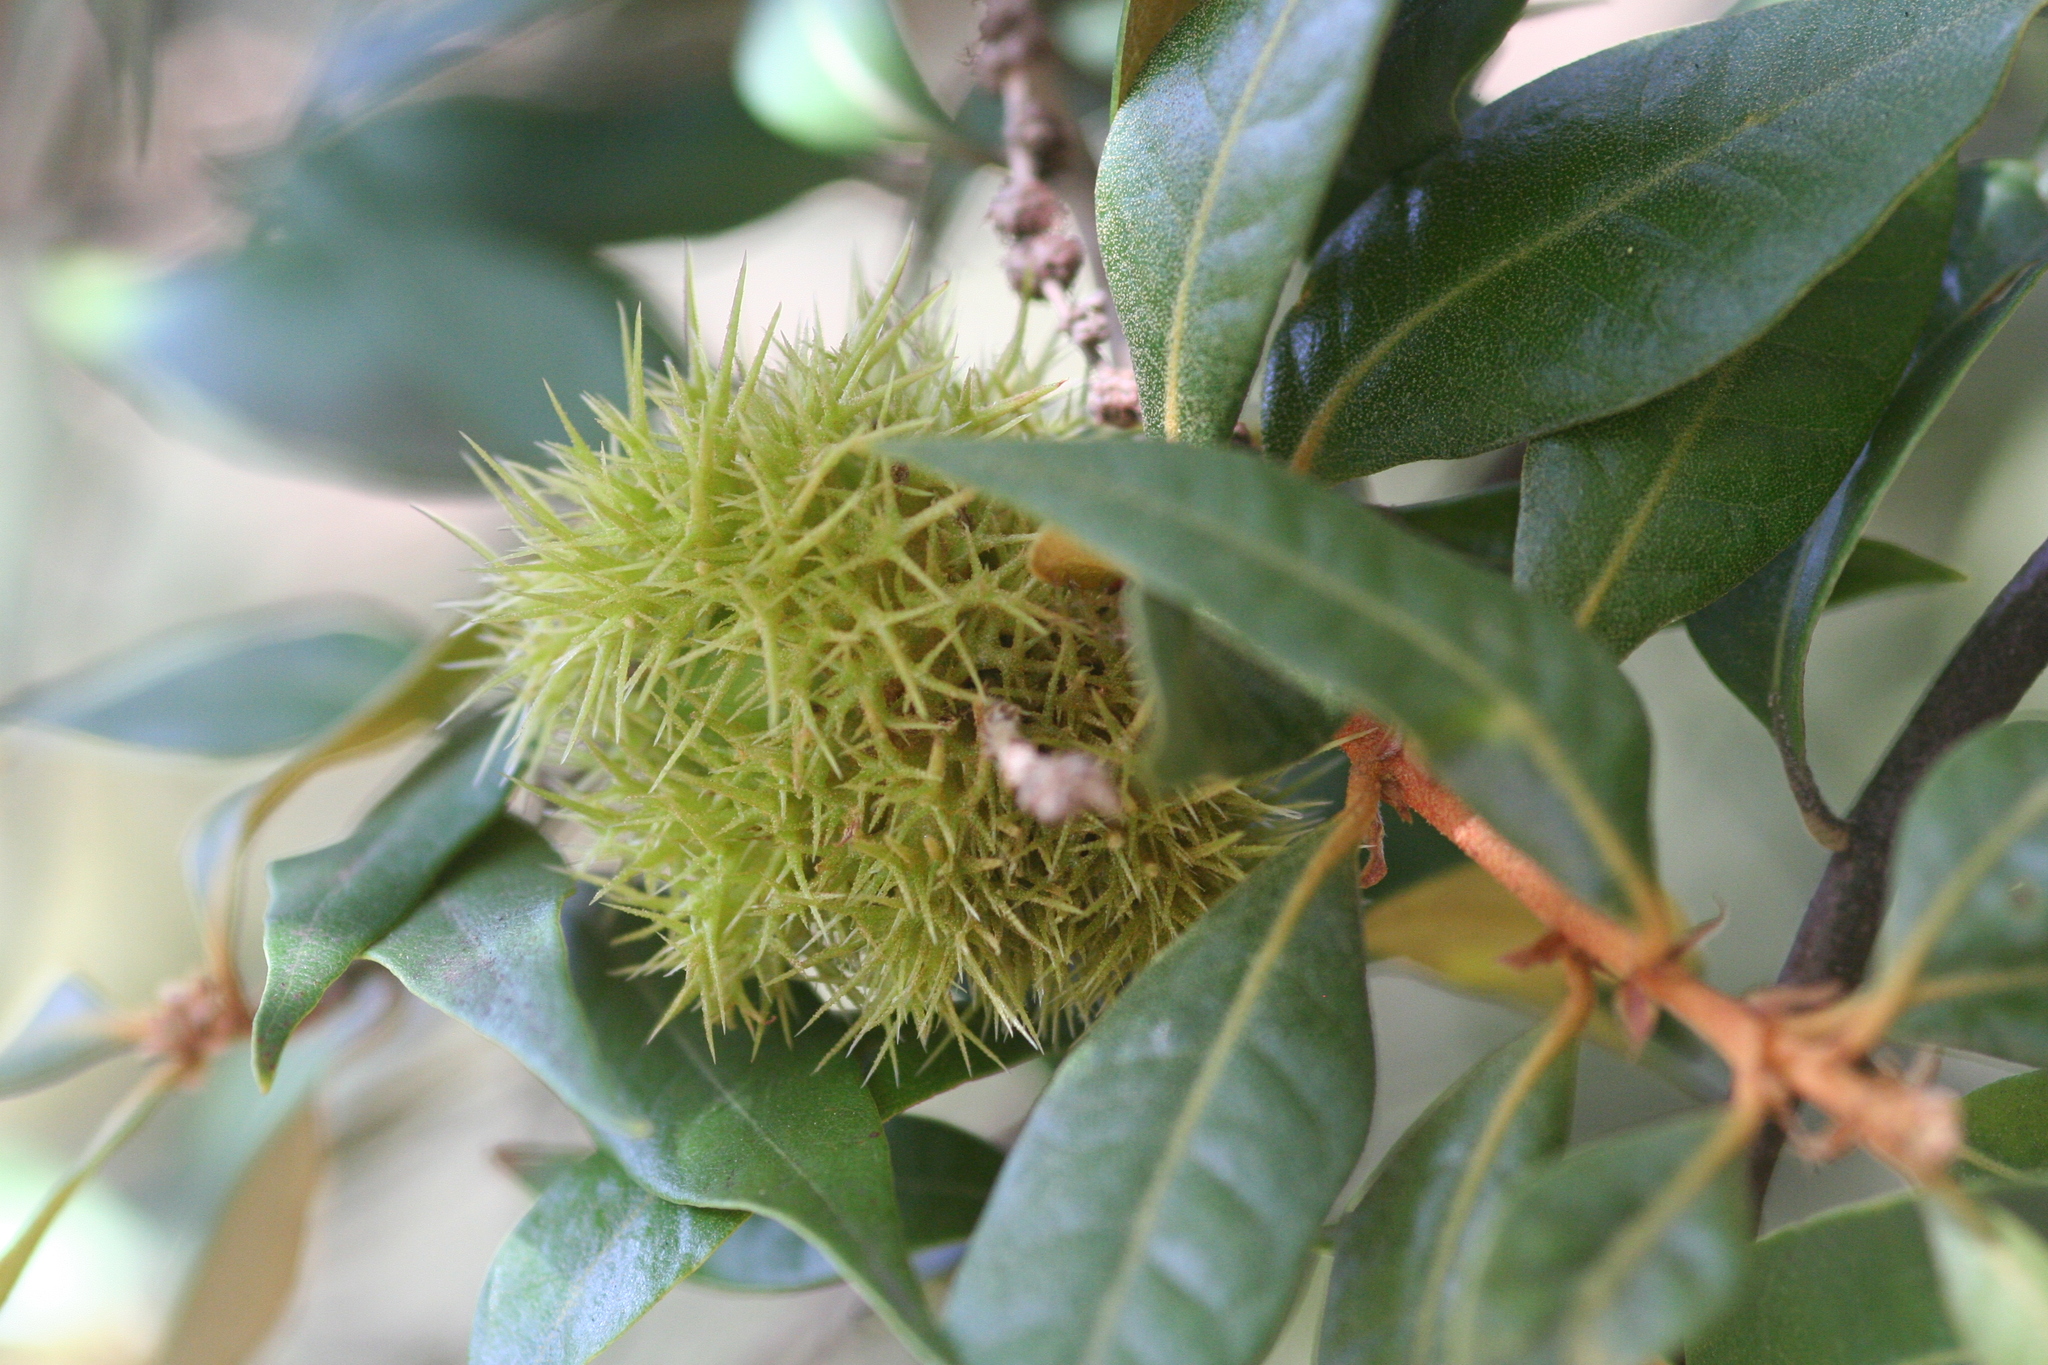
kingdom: Plantae
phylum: Tracheophyta
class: Magnoliopsida
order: Fagales
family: Fagaceae
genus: Chrysolepis
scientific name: Chrysolepis chrysophylla
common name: Giant chinquapin
